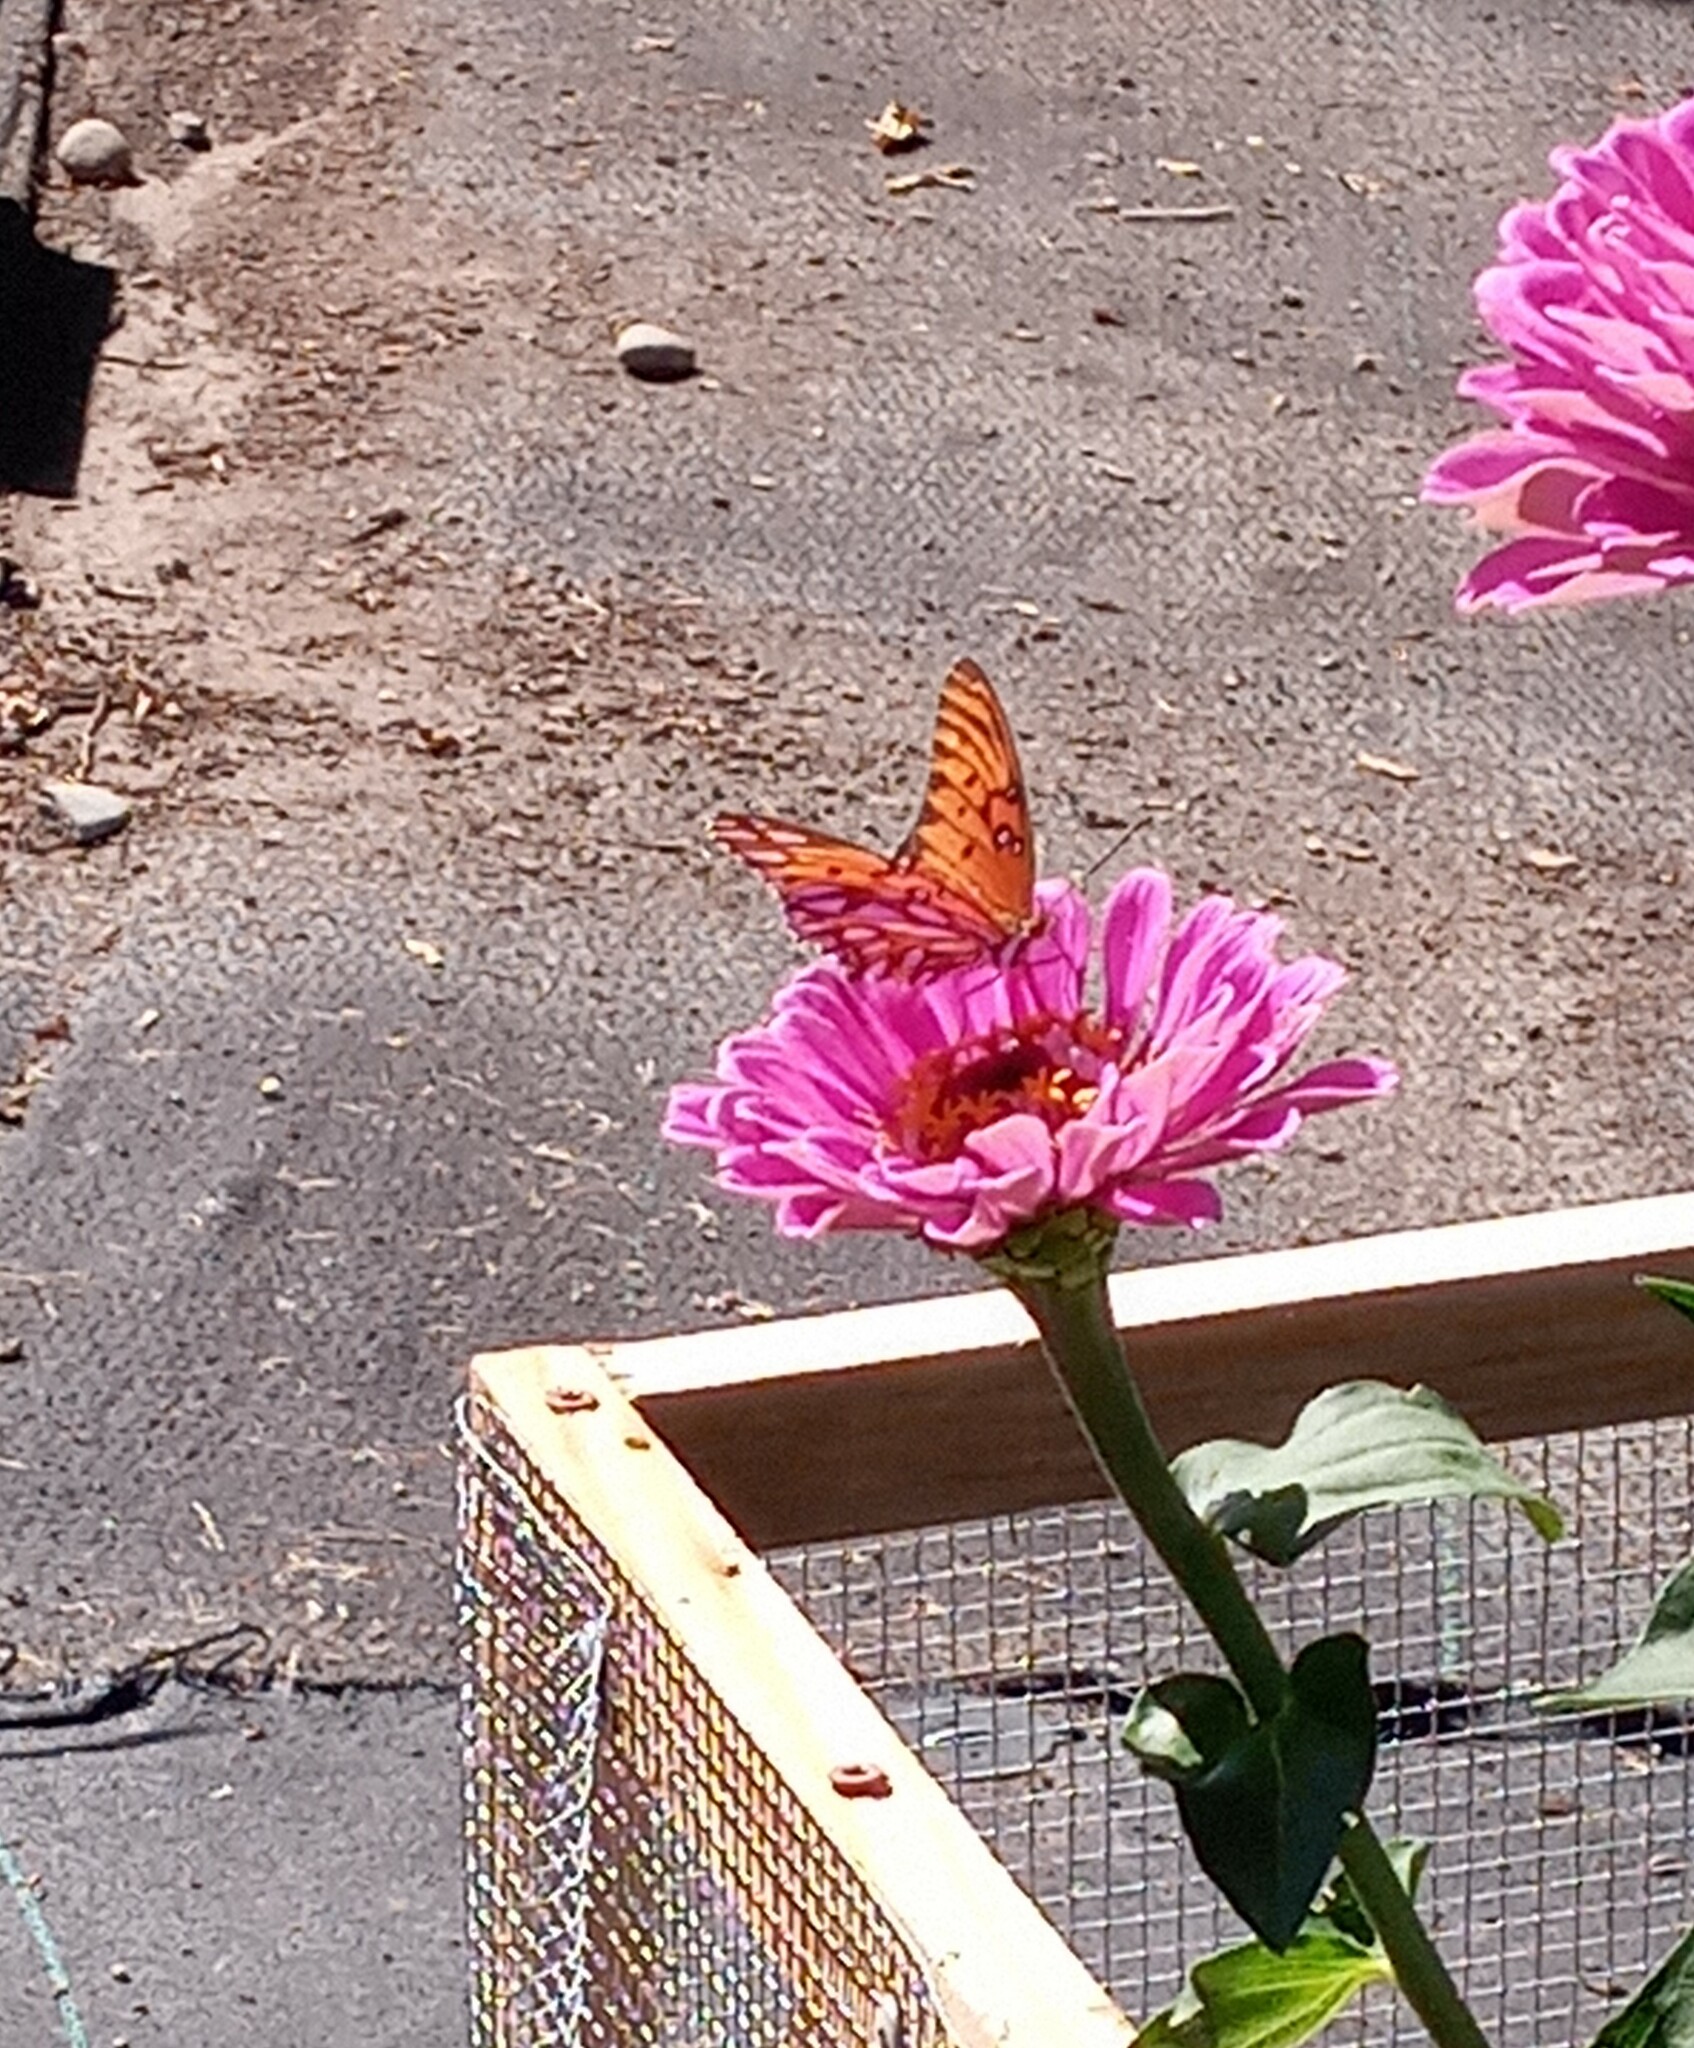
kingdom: Animalia
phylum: Arthropoda
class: Insecta
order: Lepidoptera
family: Nymphalidae
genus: Dione
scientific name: Dione vanillae
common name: Gulf fritillary
